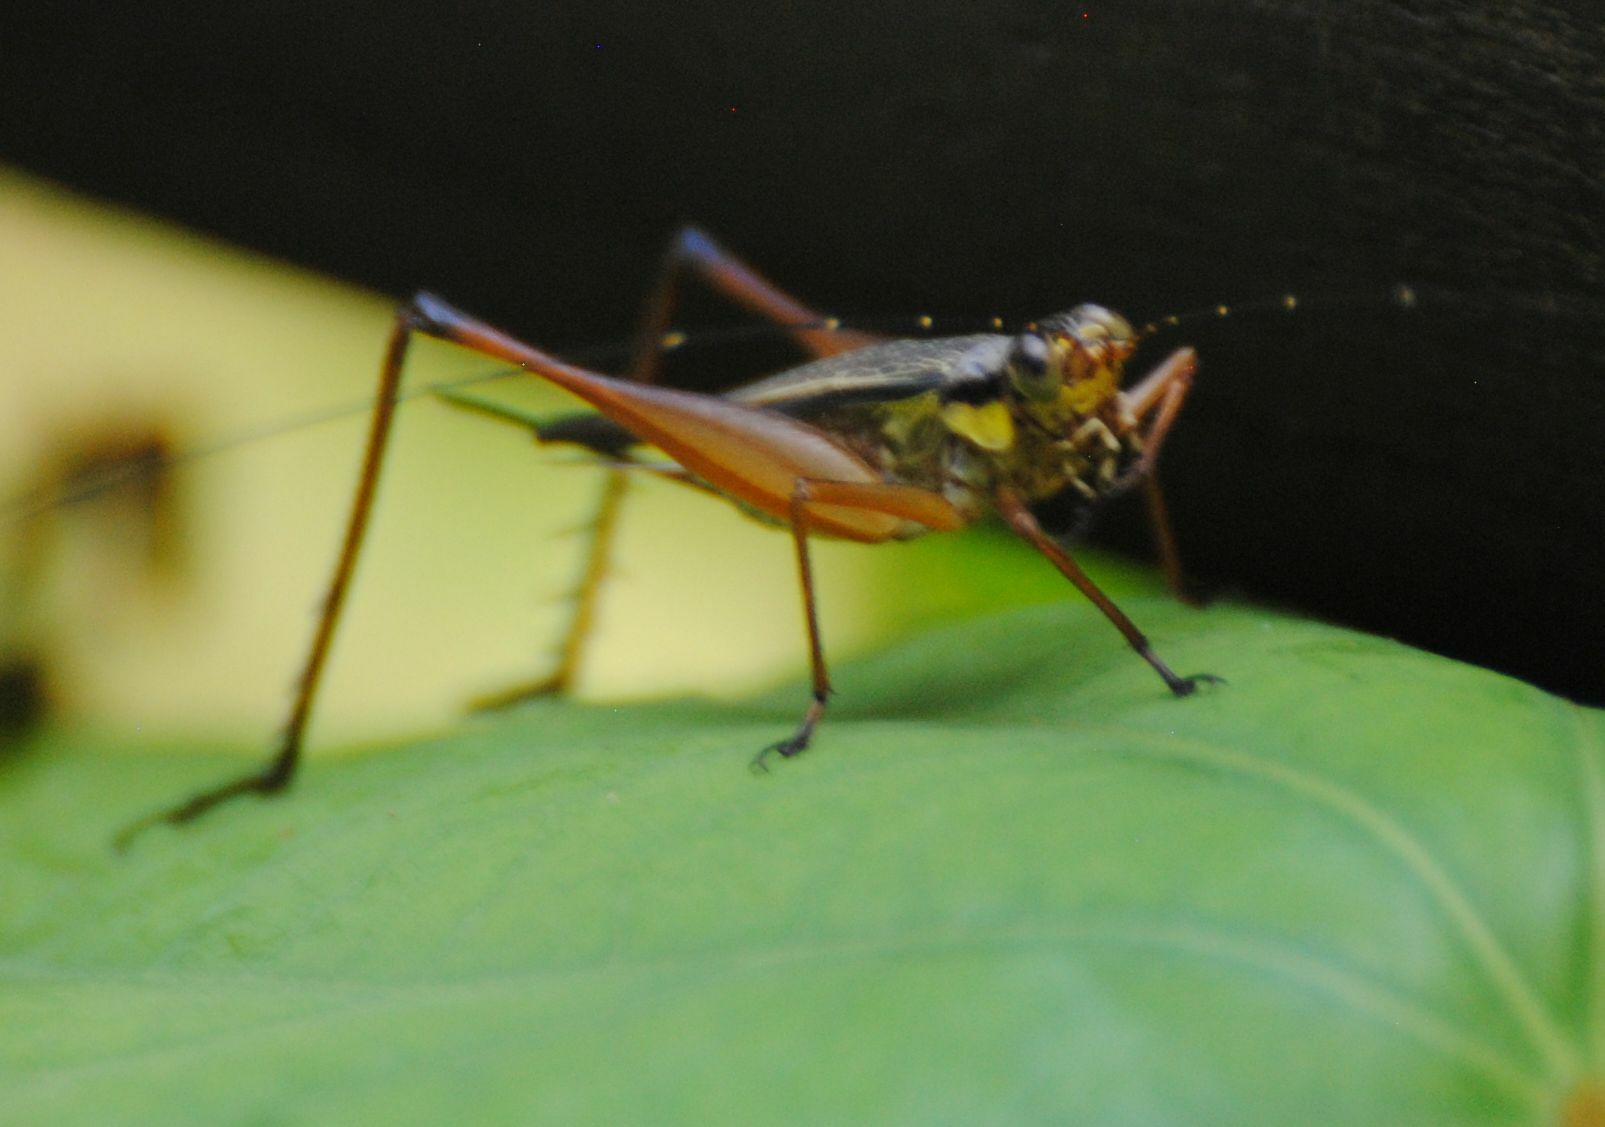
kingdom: Animalia
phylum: Arthropoda
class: Insecta
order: Orthoptera
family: Gryllidae
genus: Nisitrus
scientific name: Nisitrus malaya
